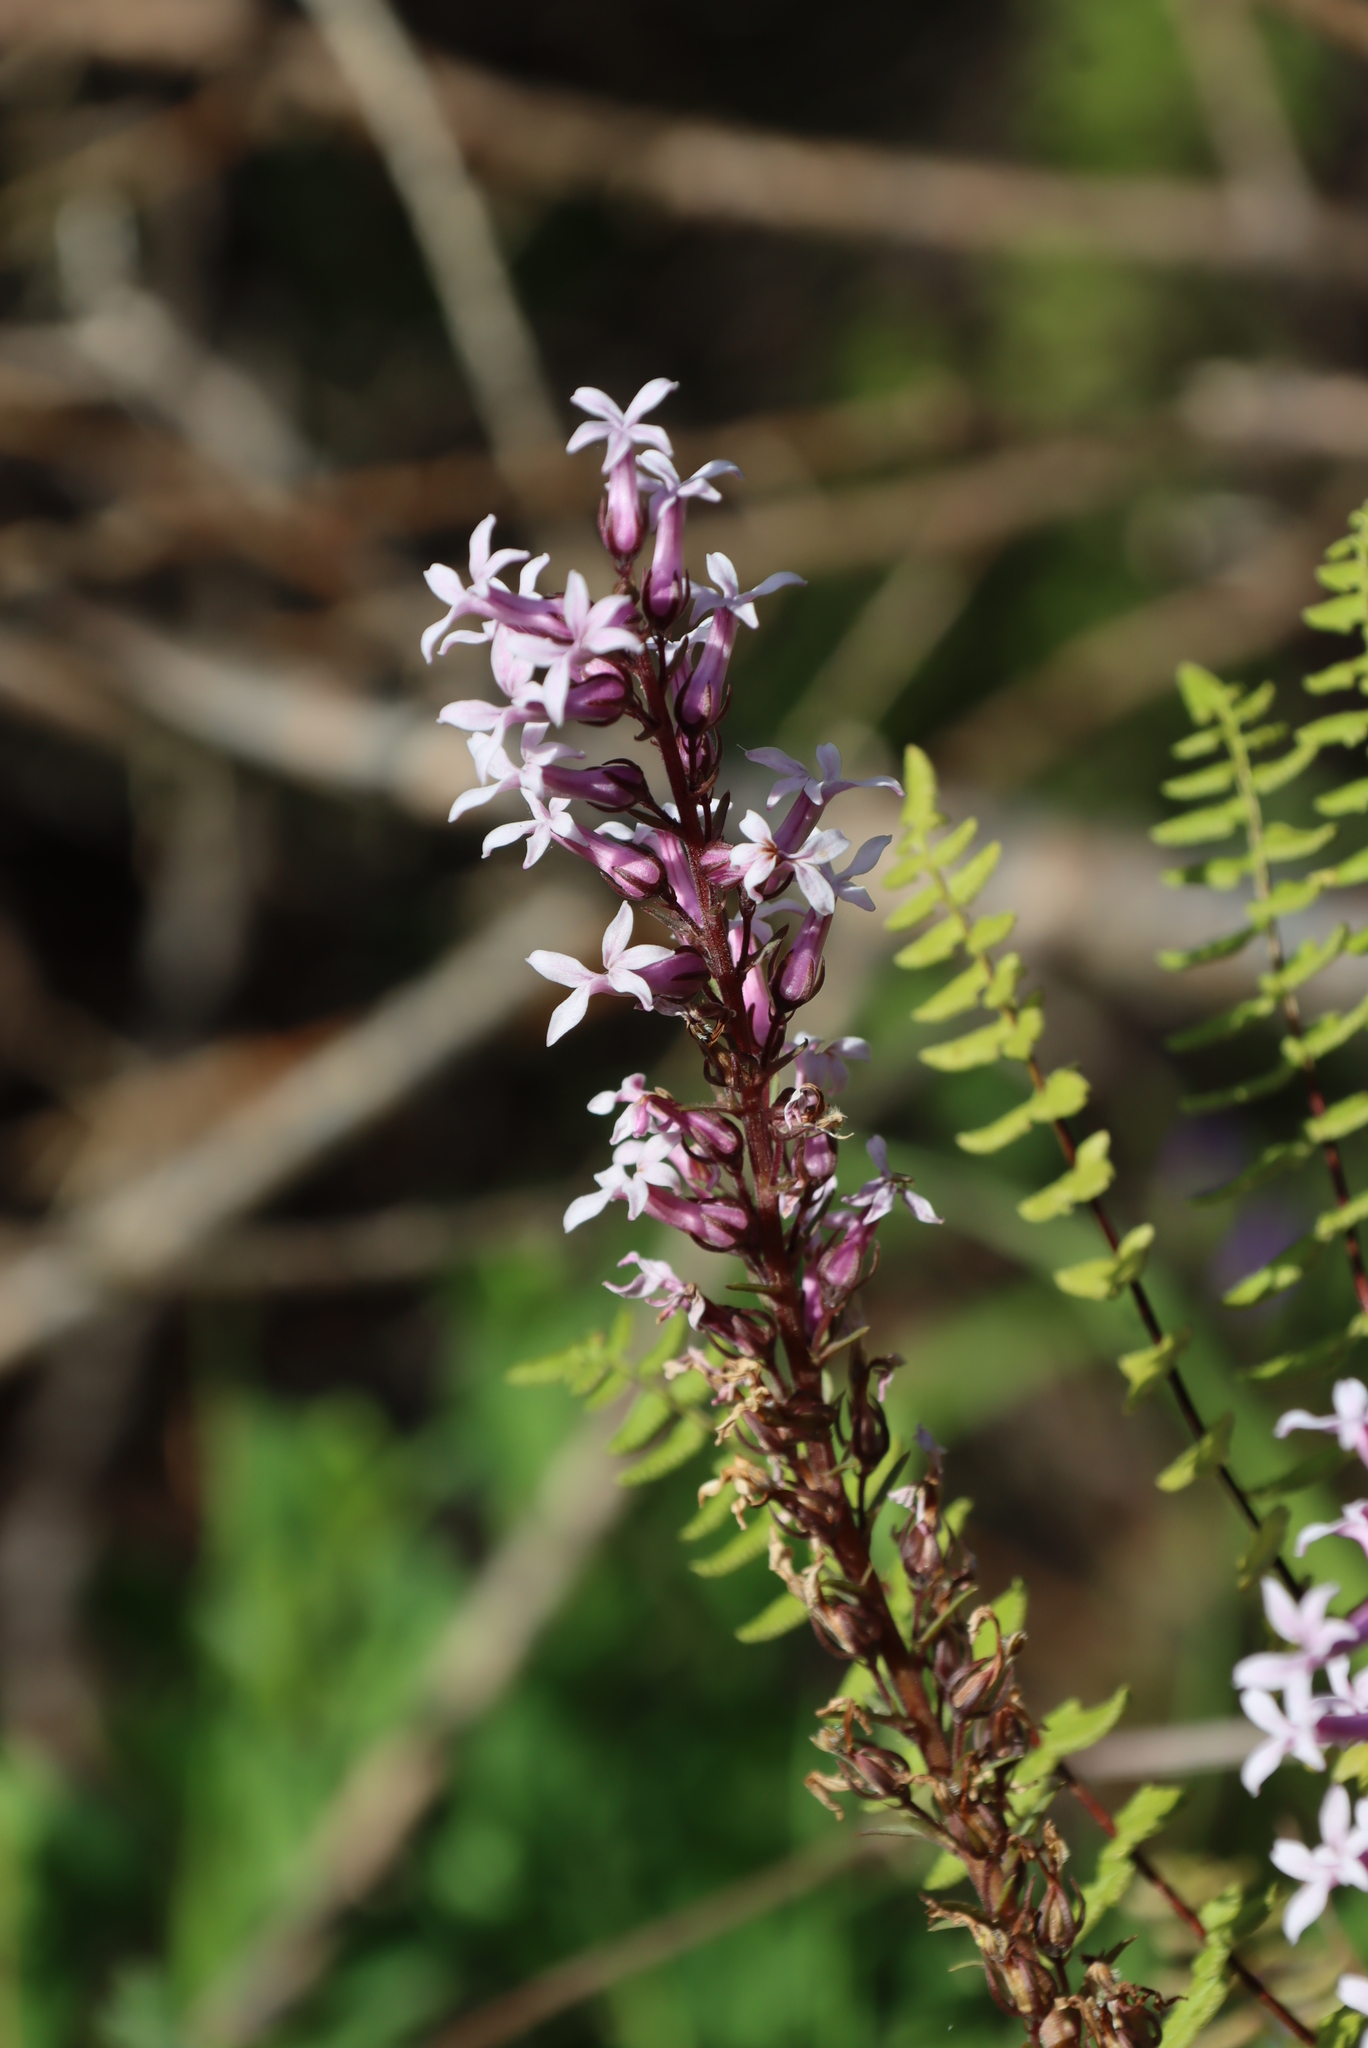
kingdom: Plantae
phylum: Tracheophyta
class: Magnoliopsida
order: Asterales
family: Campanulaceae
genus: Cyphia
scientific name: Cyphia bulbosa
